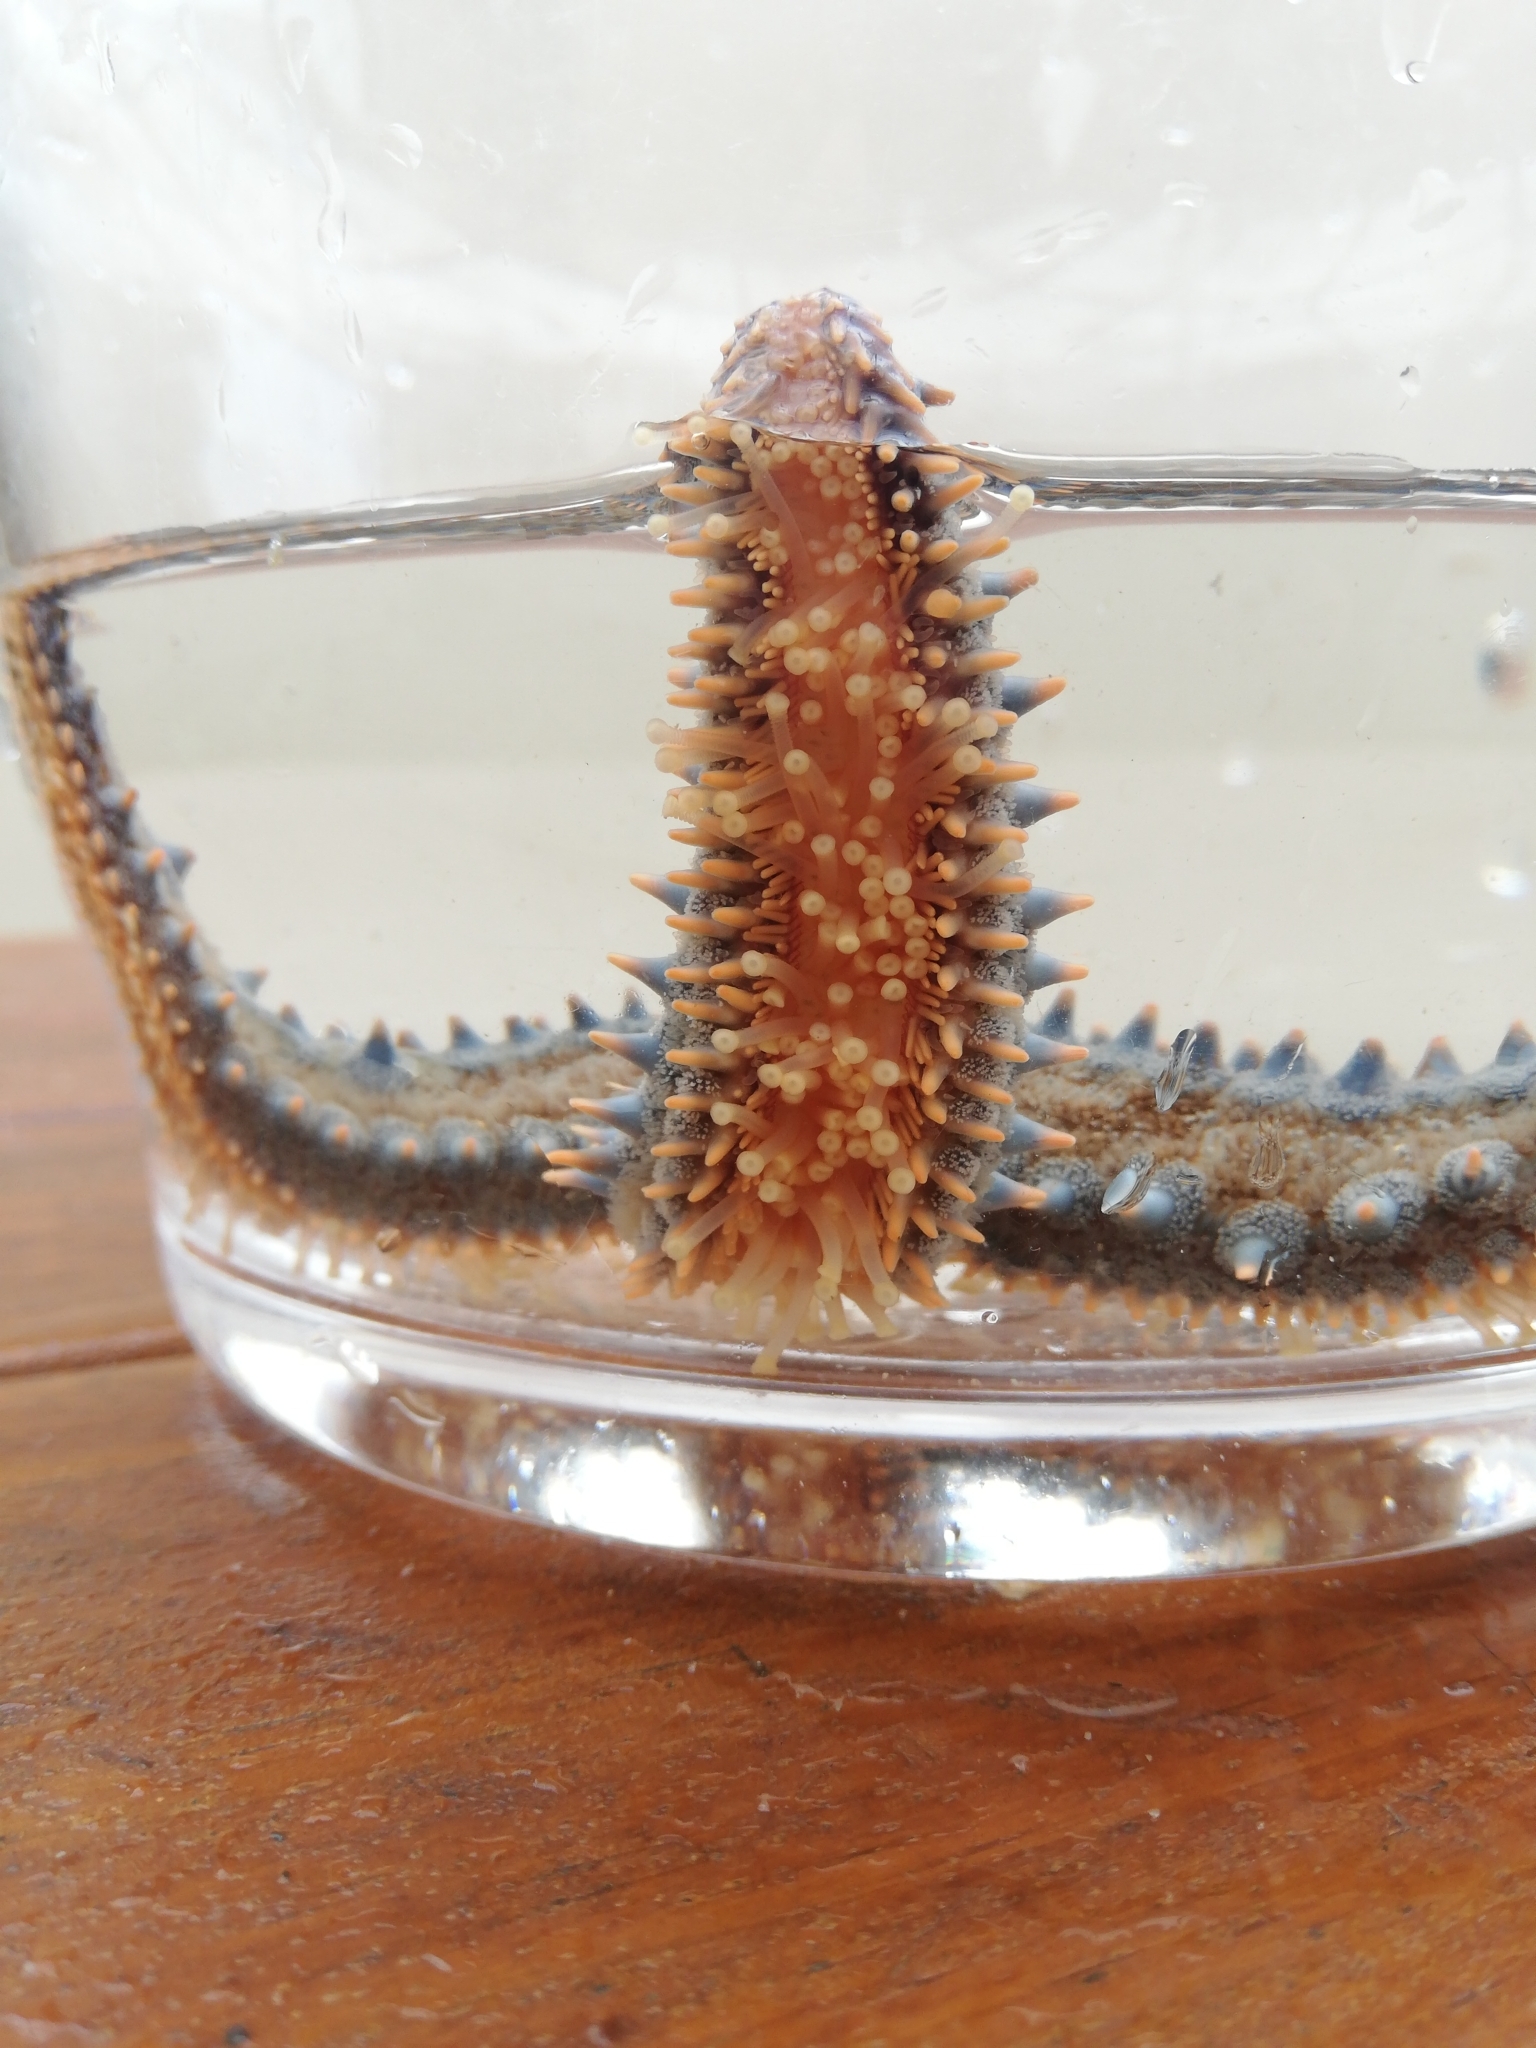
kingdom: Animalia
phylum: Echinodermata
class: Asteroidea
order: Forcipulatida
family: Asteriidae
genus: Marthasterias
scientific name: Marthasterias africana
